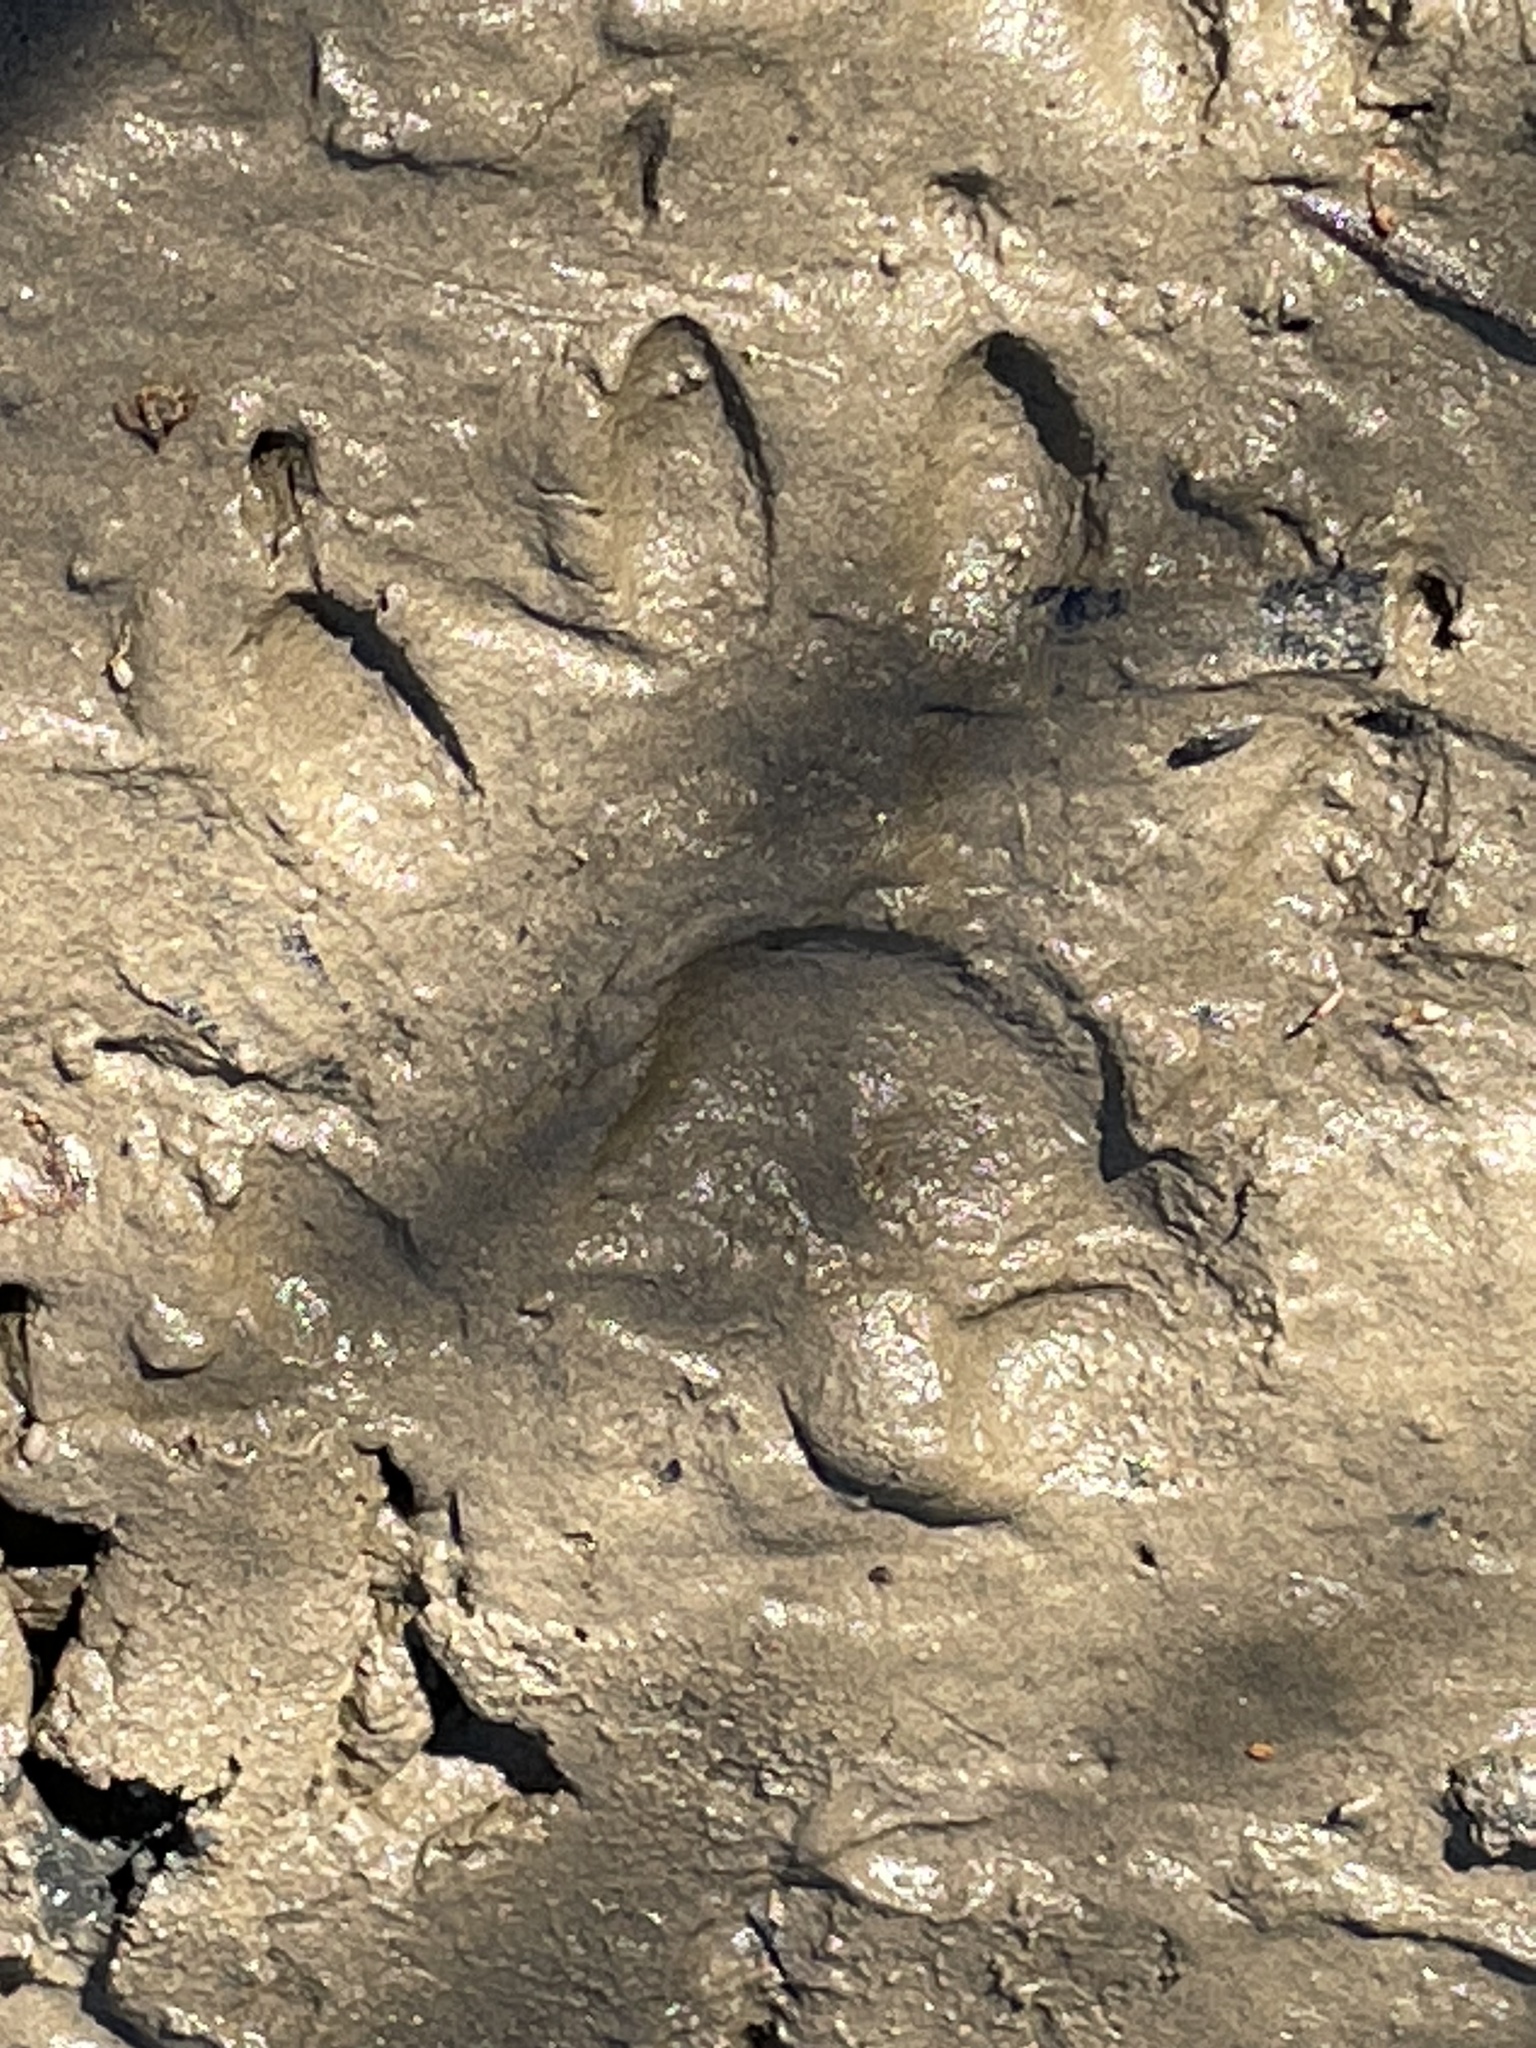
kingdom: Animalia
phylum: Chordata
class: Mammalia
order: Carnivora
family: Procyonidae
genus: Procyon
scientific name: Procyon lotor
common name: Raccoon
